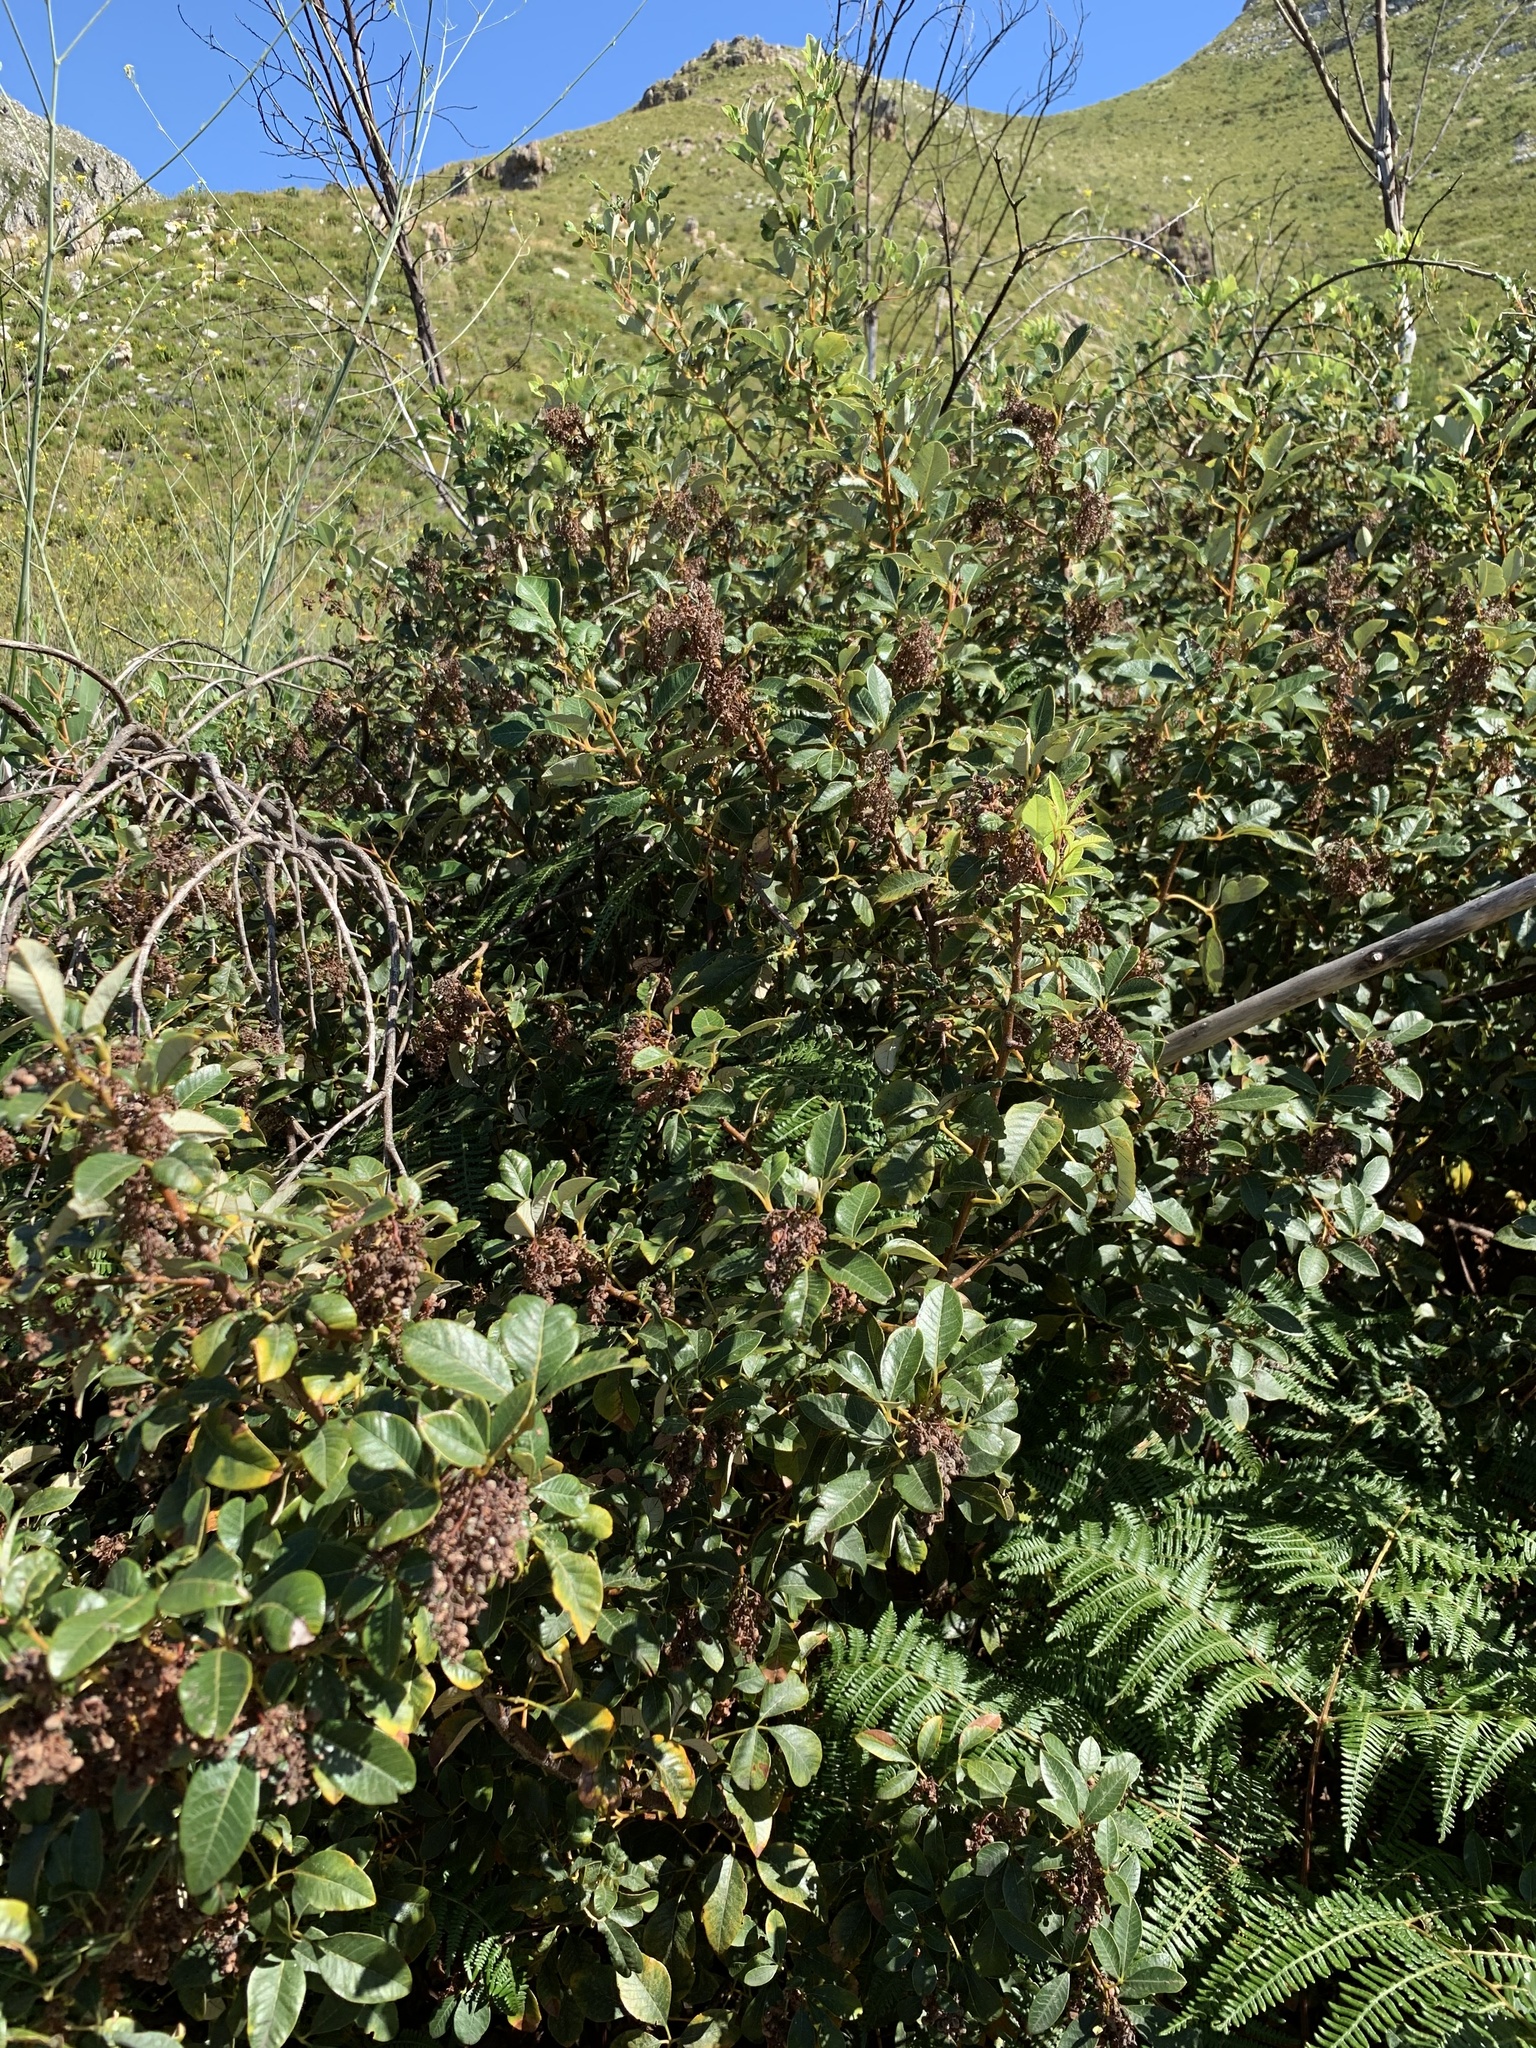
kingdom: Plantae
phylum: Tracheophyta
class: Magnoliopsida
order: Sapindales
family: Anacardiaceae
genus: Searsia
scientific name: Searsia tomentosa
